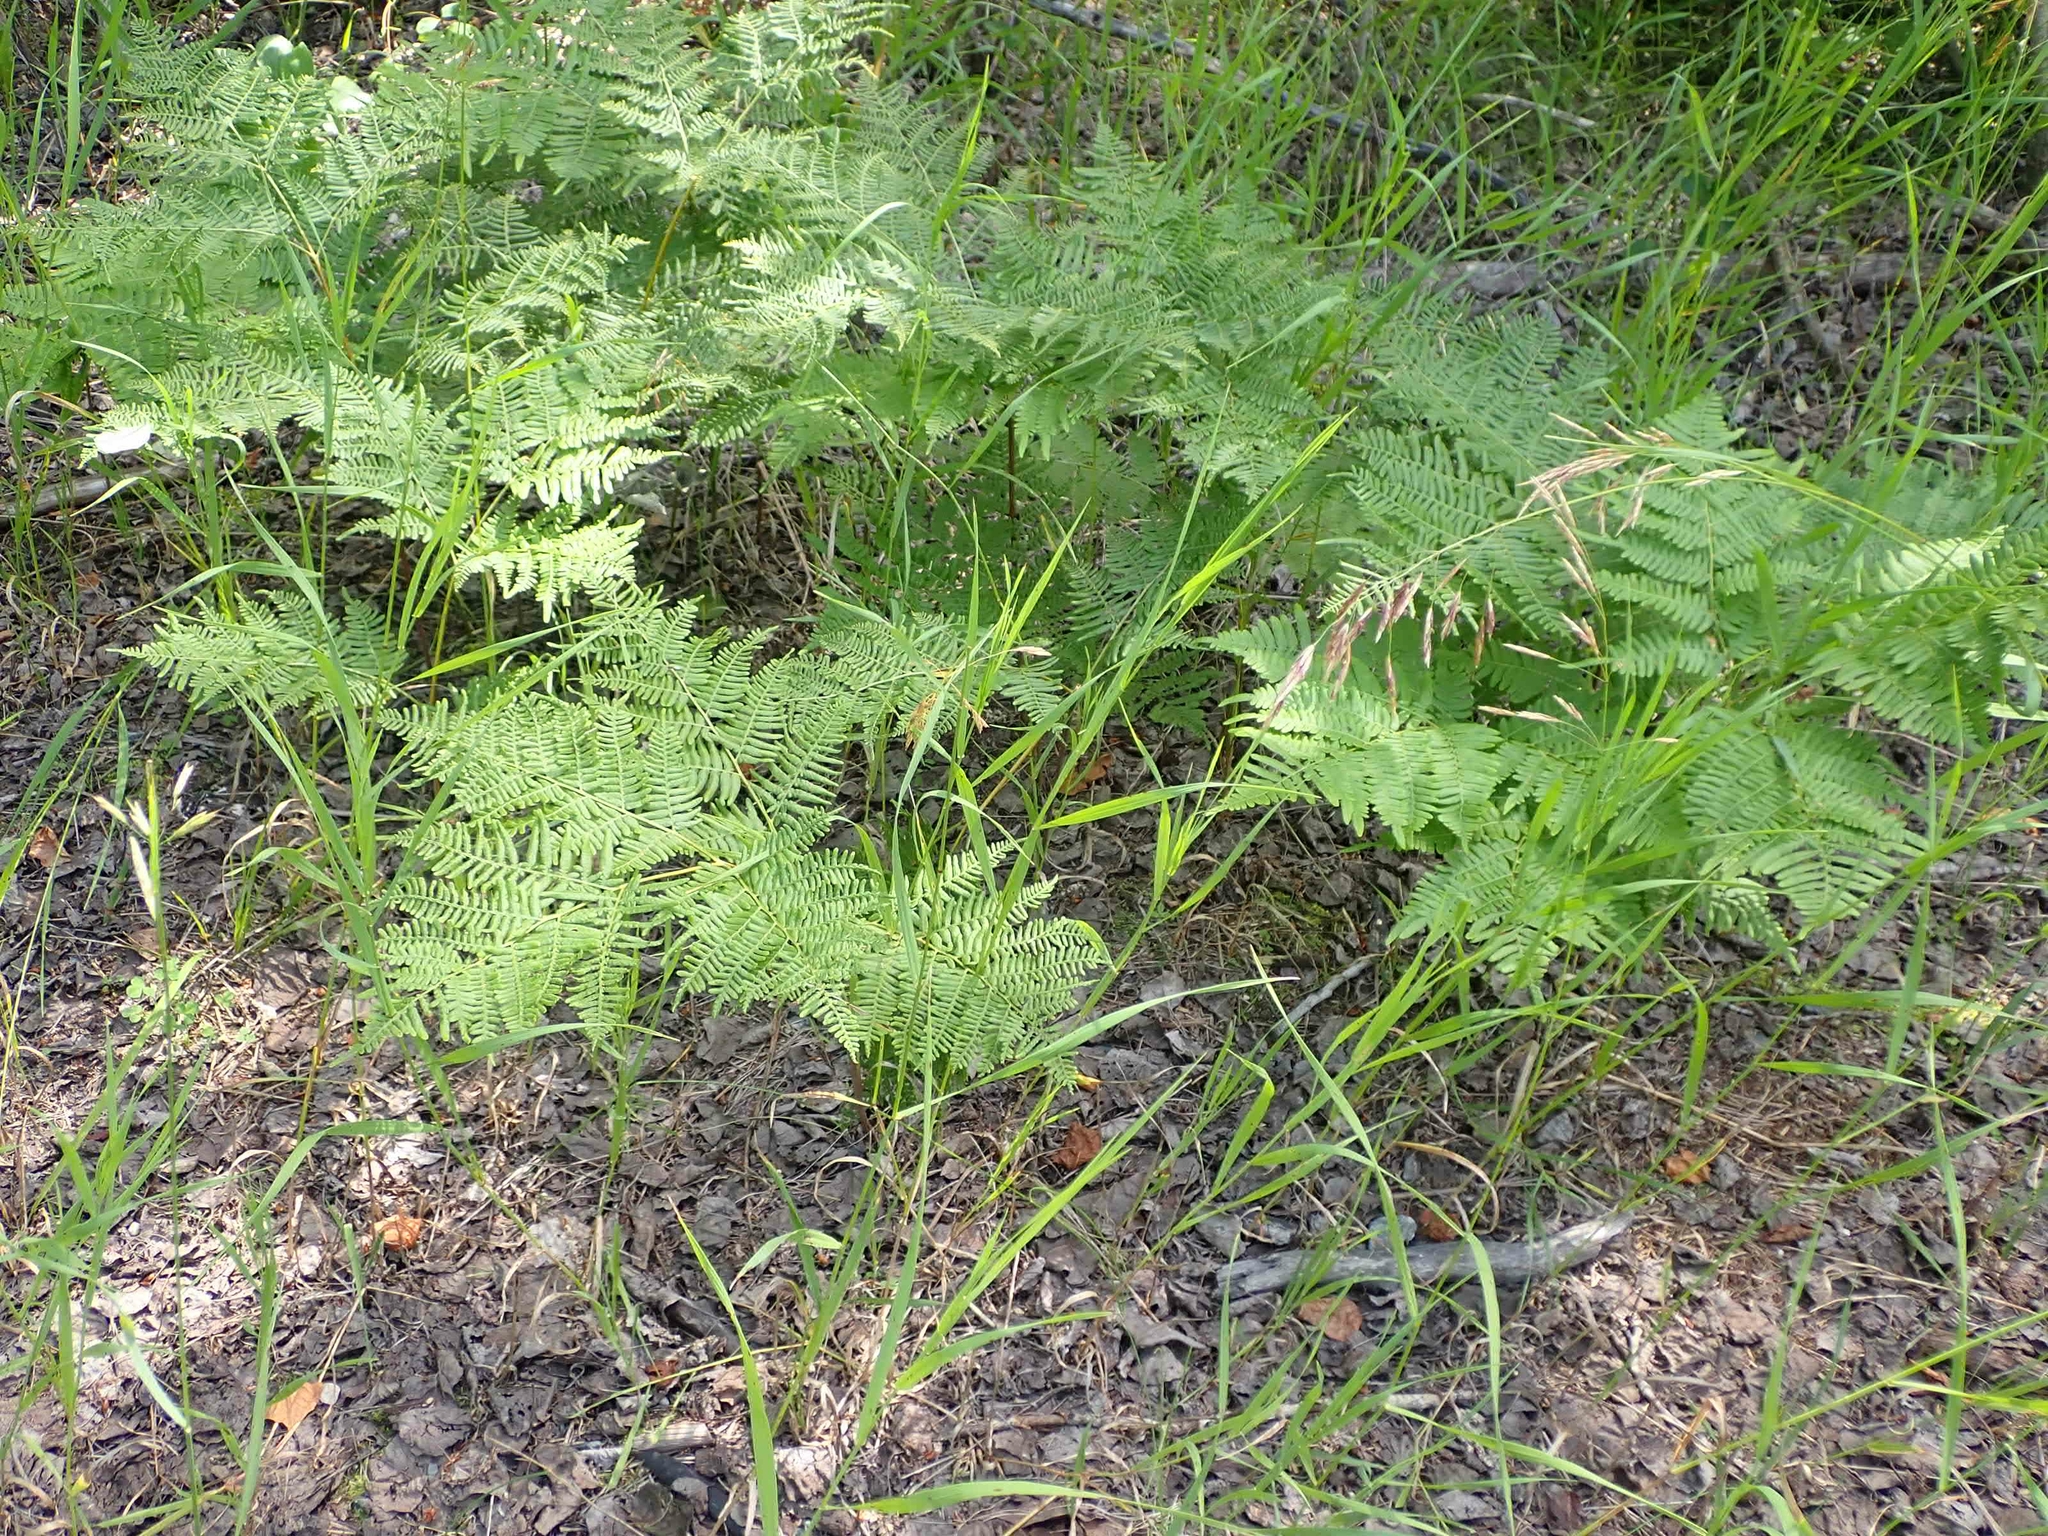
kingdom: Plantae
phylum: Tracheophyta
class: Polypodiopsida
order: Polypodiales
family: Dennstaedtiaceae
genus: Pteridium
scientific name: Pteridium aquilinum
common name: Bracken
